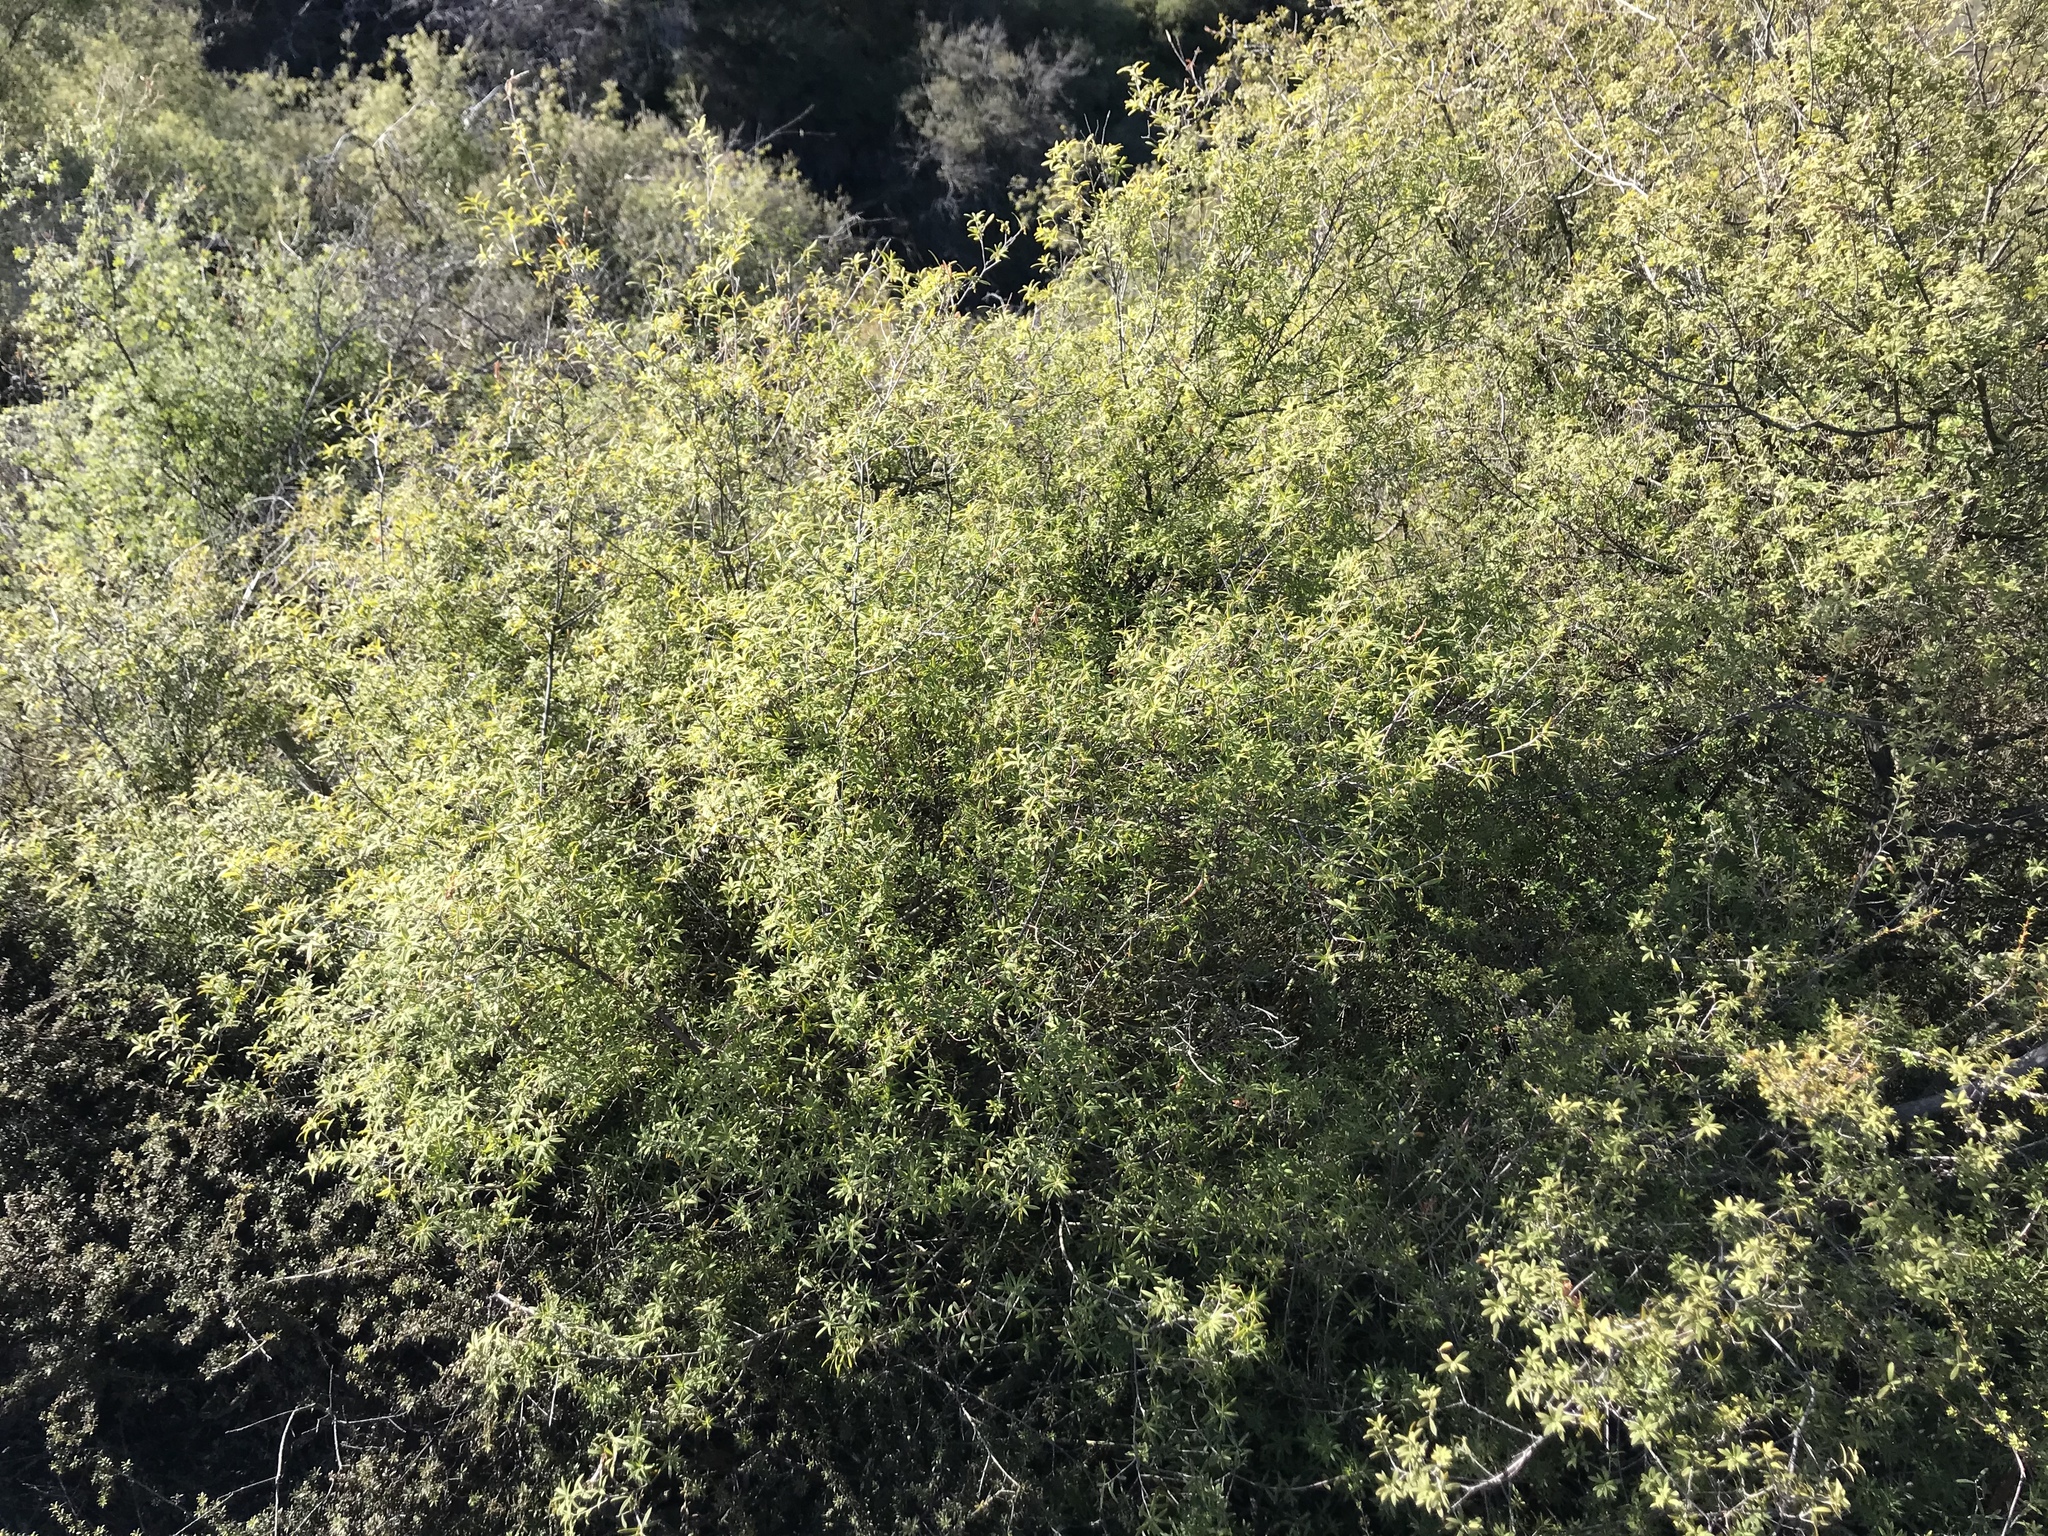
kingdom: Plantae
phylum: Tracheophyta
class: Magnoliopsida
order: Ericales
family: Ericaceae
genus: Leucopogon
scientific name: Leucopogon fasciculatus
